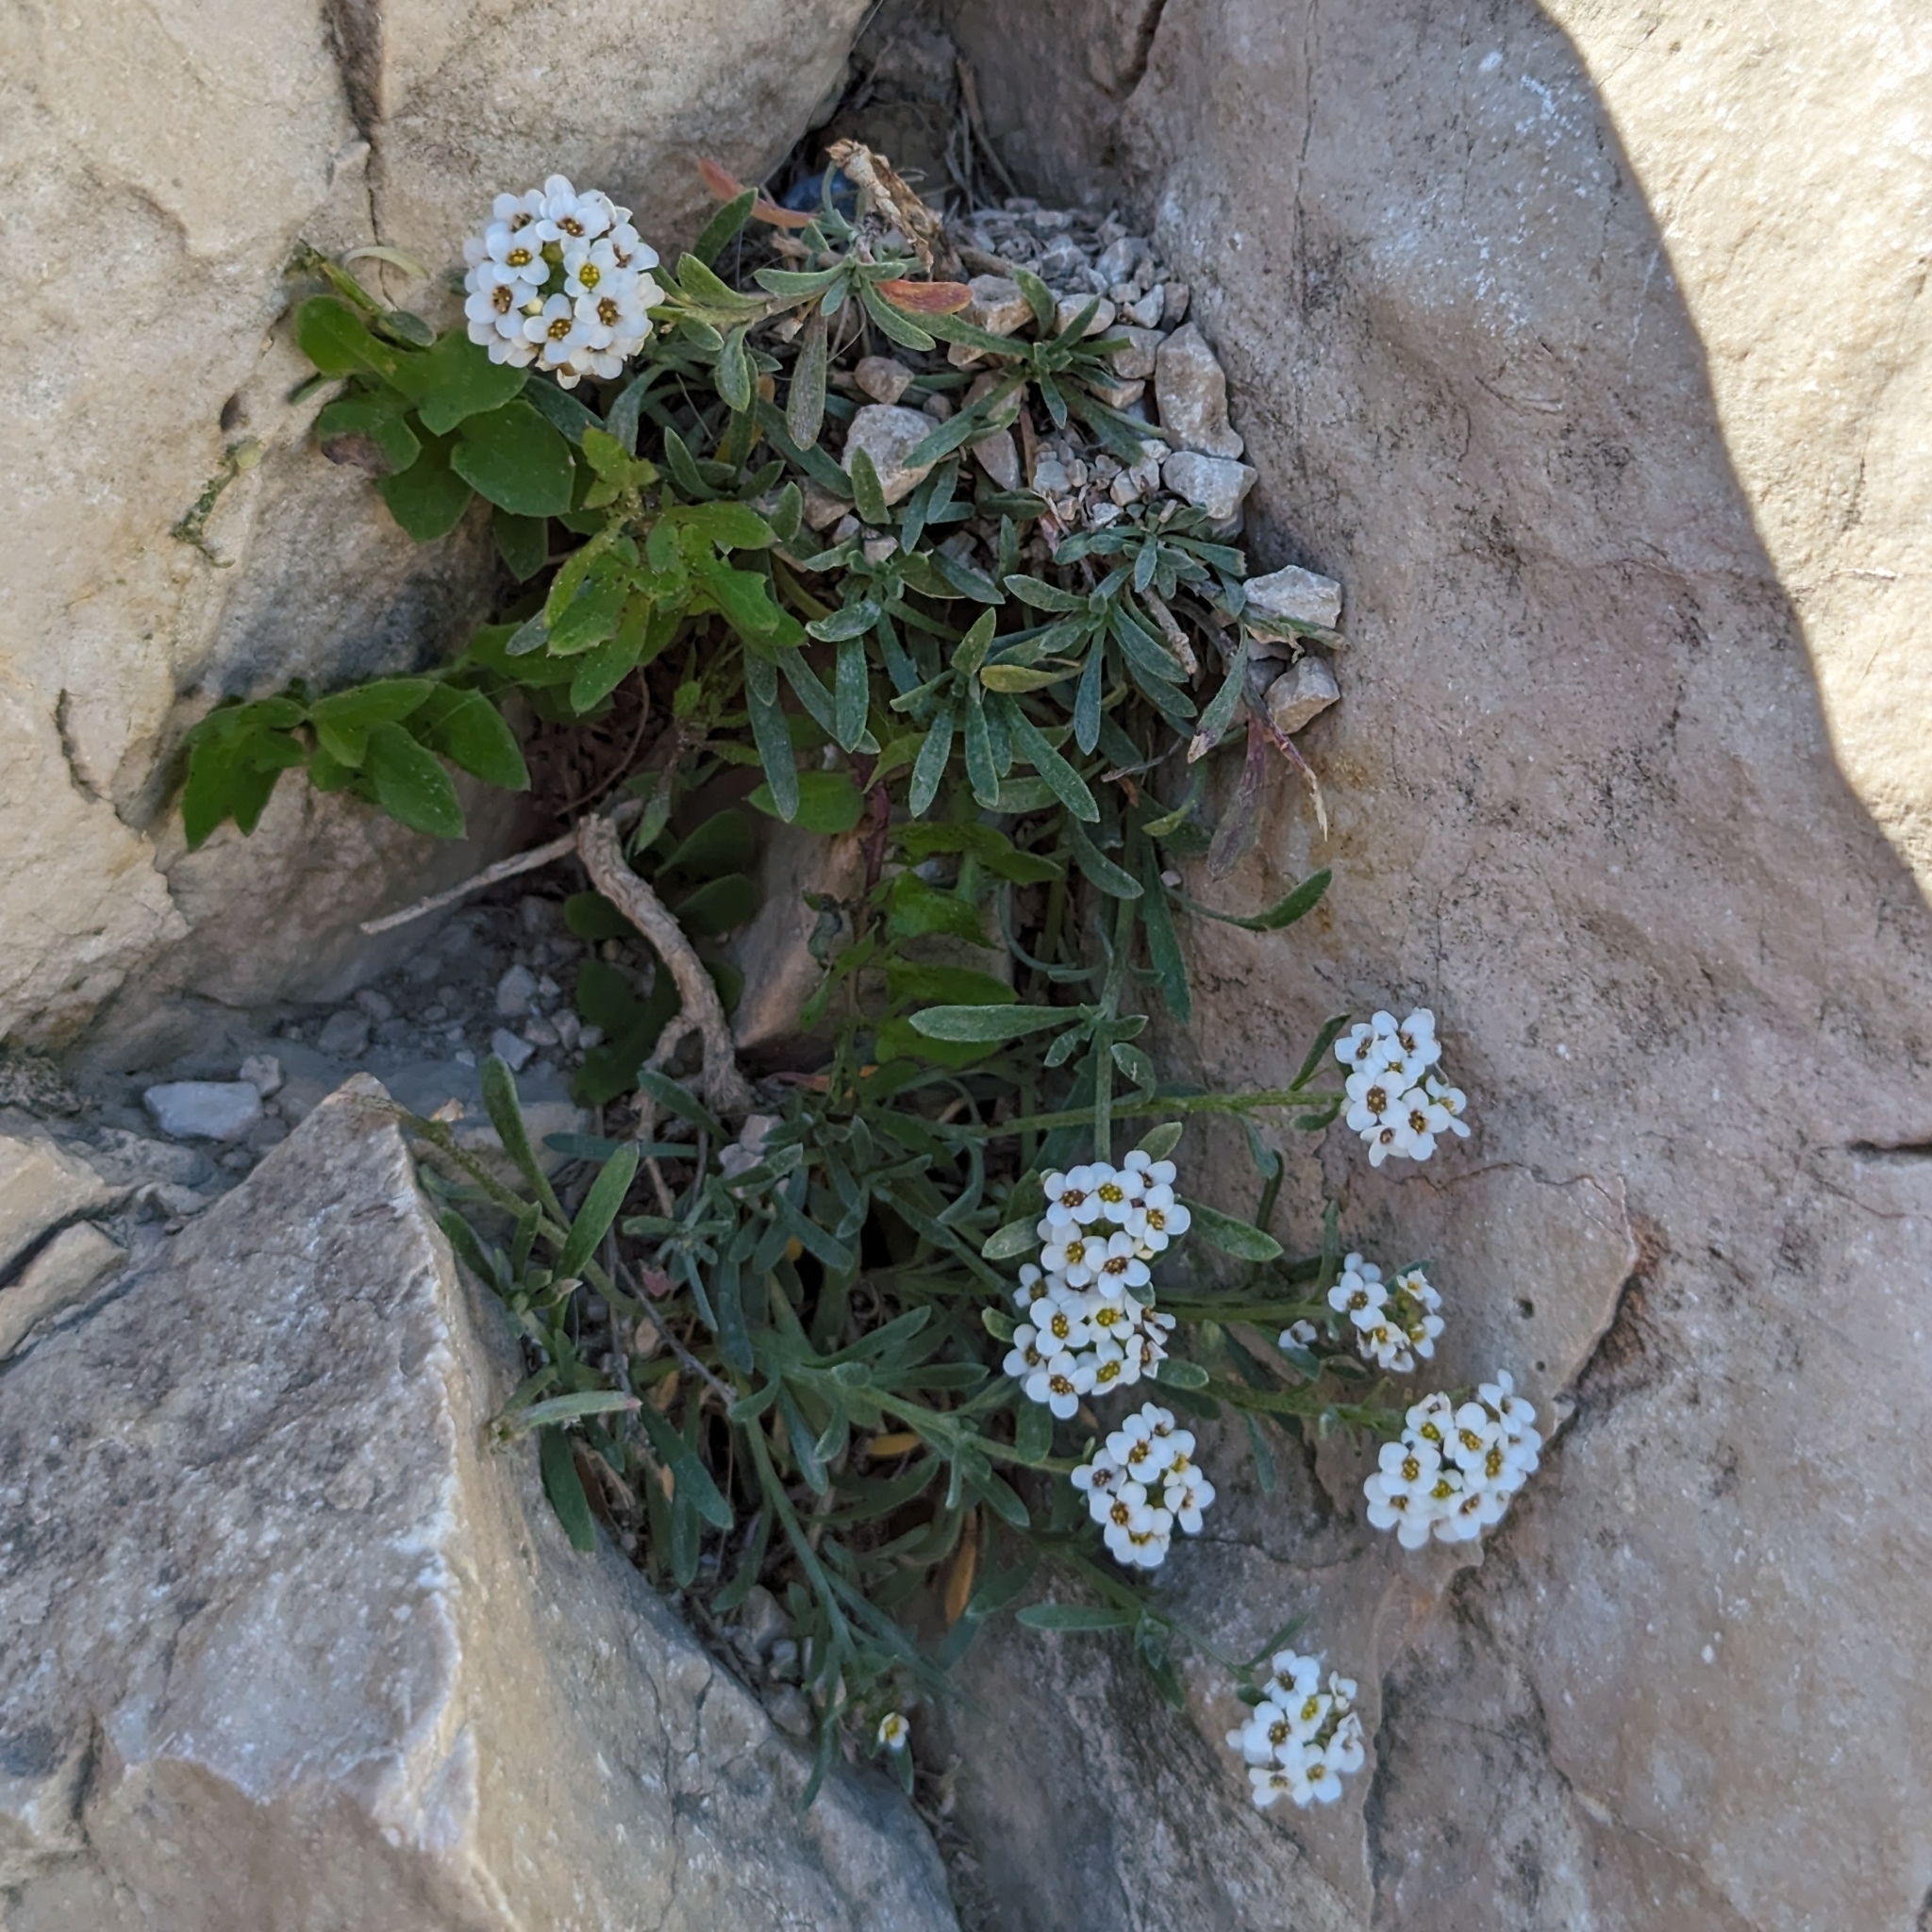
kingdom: Plantae
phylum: Tracheophyta
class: Magnoliopsida
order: Brassicales
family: Brassicaceae
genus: Lobularia
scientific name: Lobularia maritima
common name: Sweet alison
